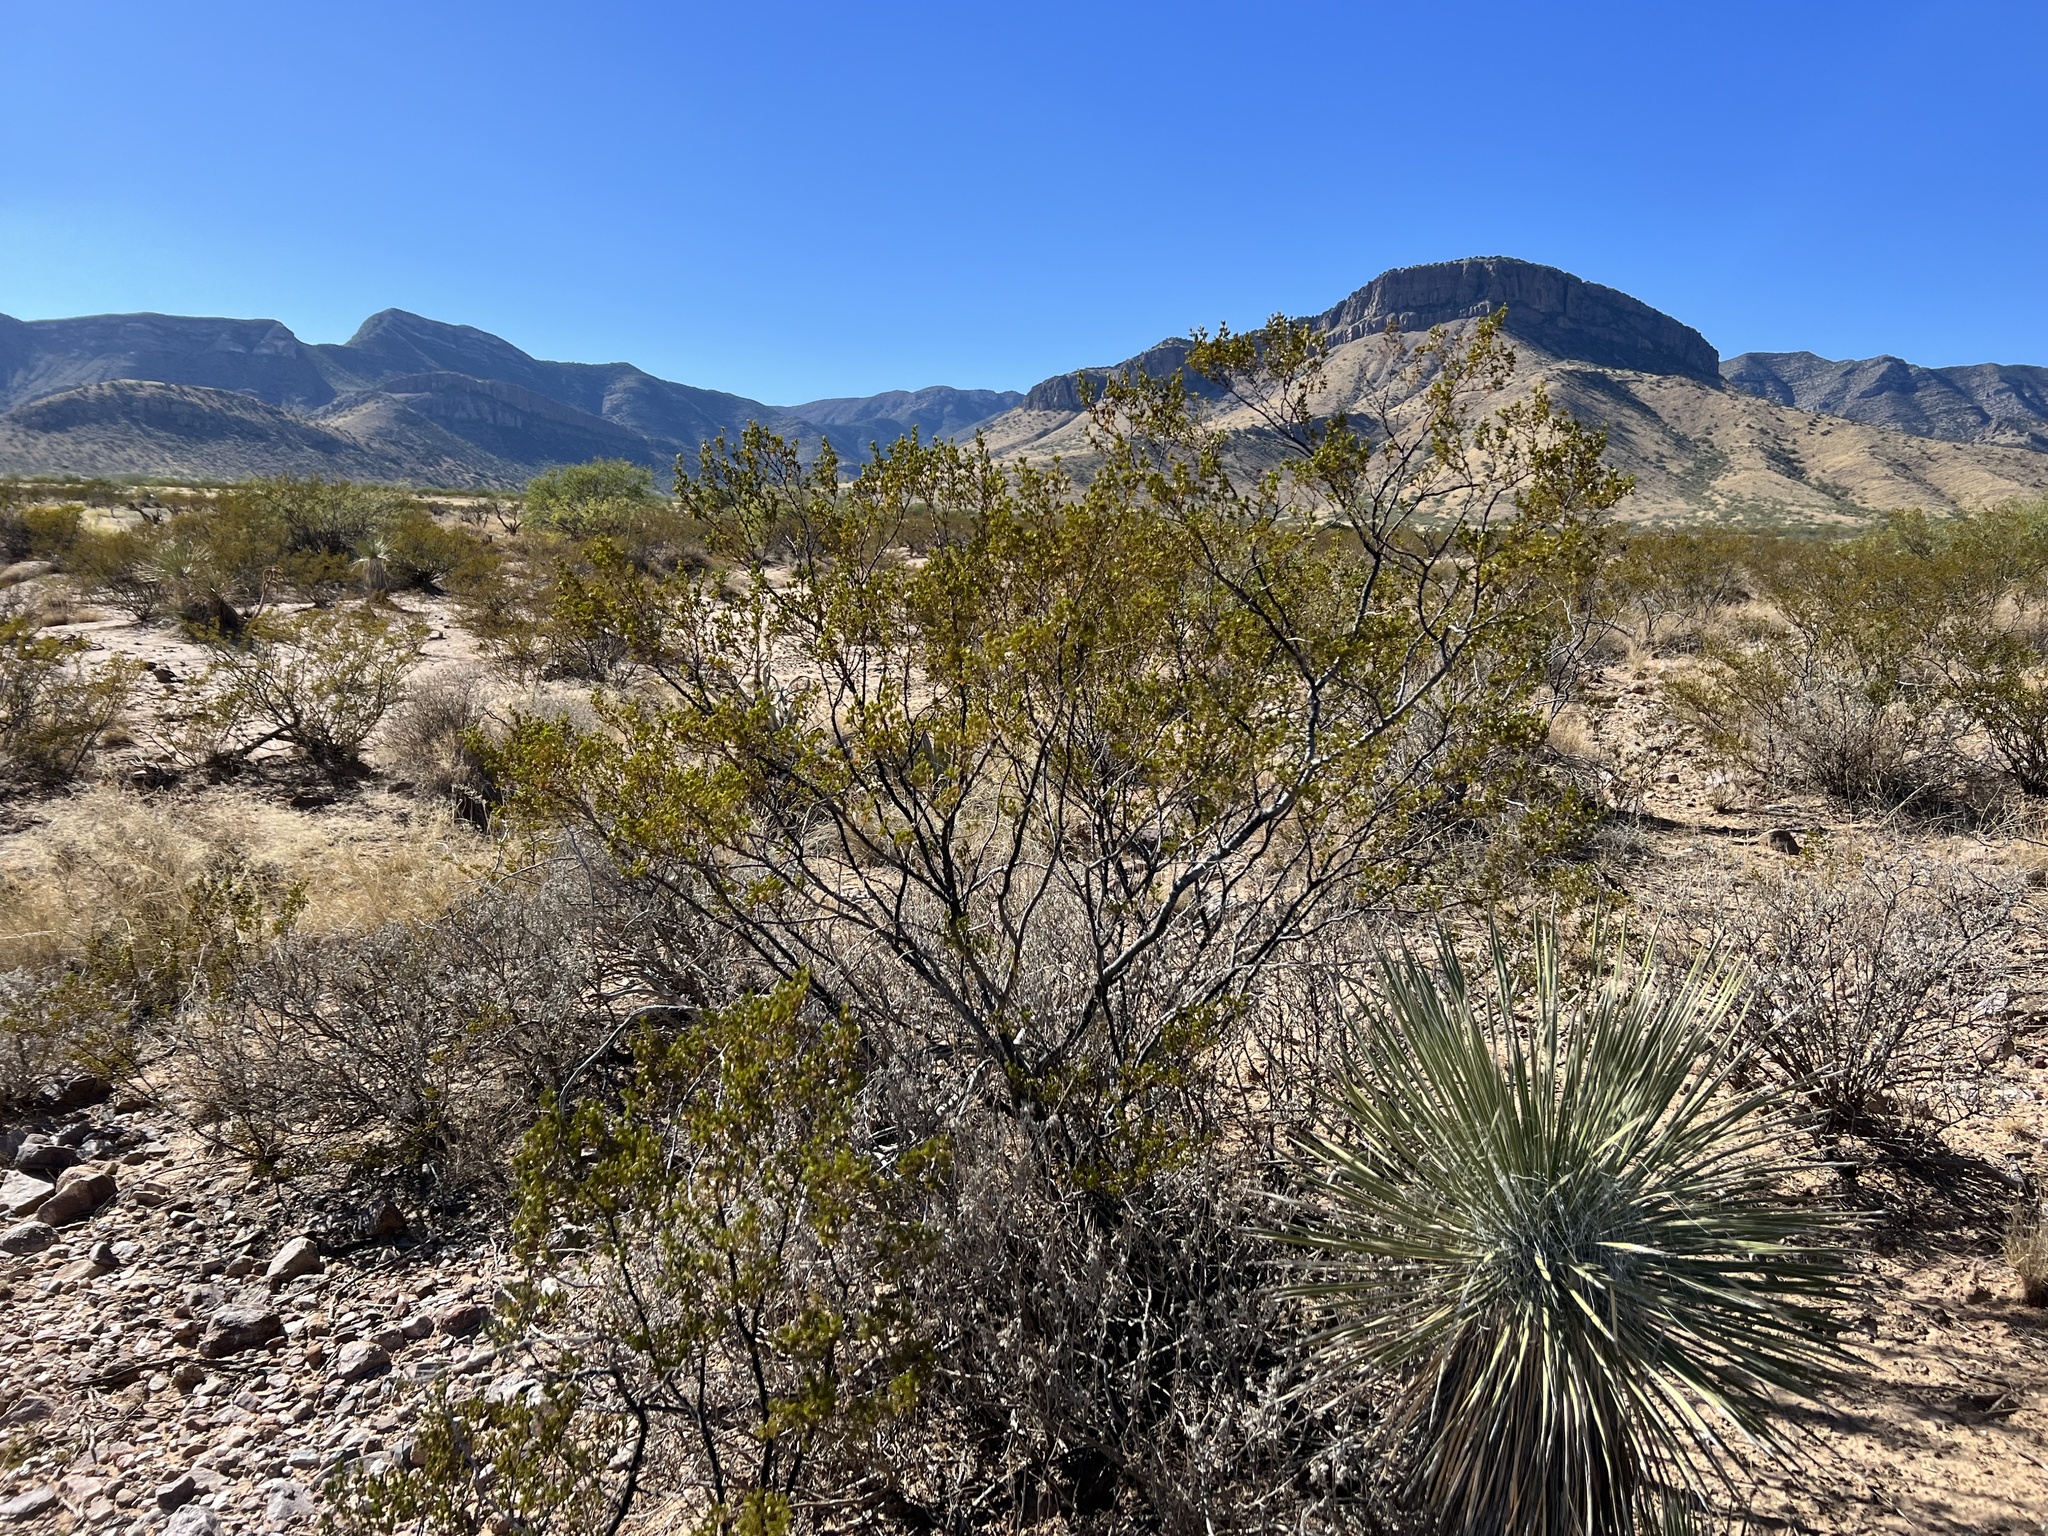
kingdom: Plantae
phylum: Tracheophyta
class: Magnoliopsida
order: Zygophyllales
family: Zygophyllaceae
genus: Larrea
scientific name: Larrea tridentata
